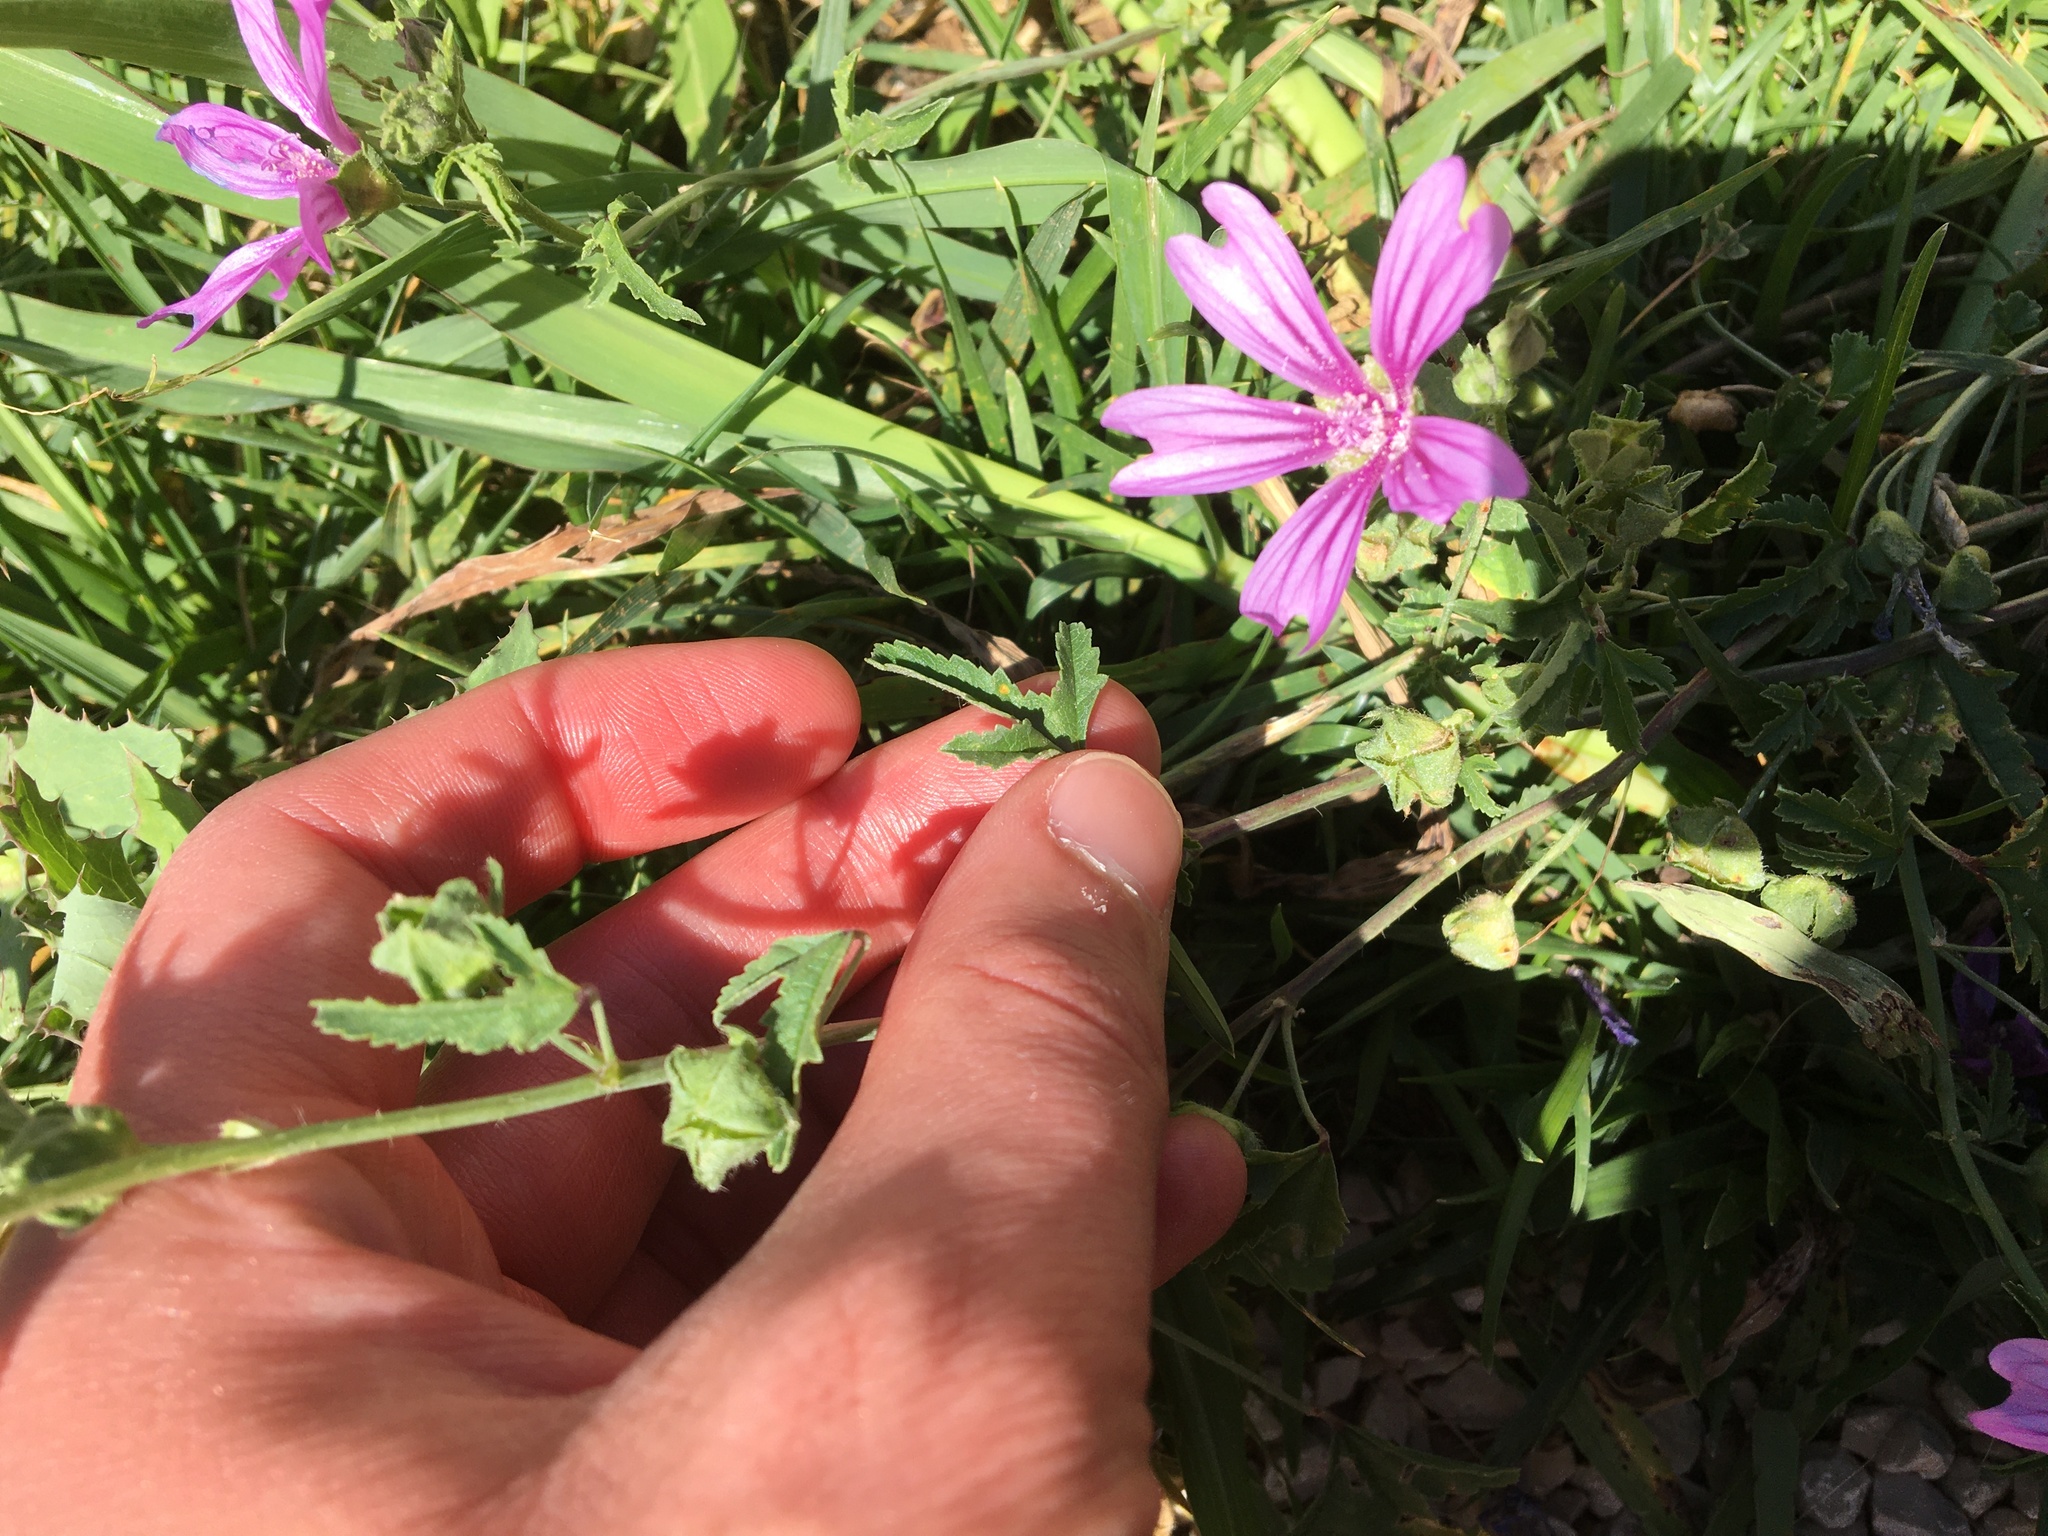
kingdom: Plantae
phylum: Tracheophyta
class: Magnoliopsida
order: Malvales
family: Malvaceae
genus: Malva
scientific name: Malva sylvestris
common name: Common mallow
